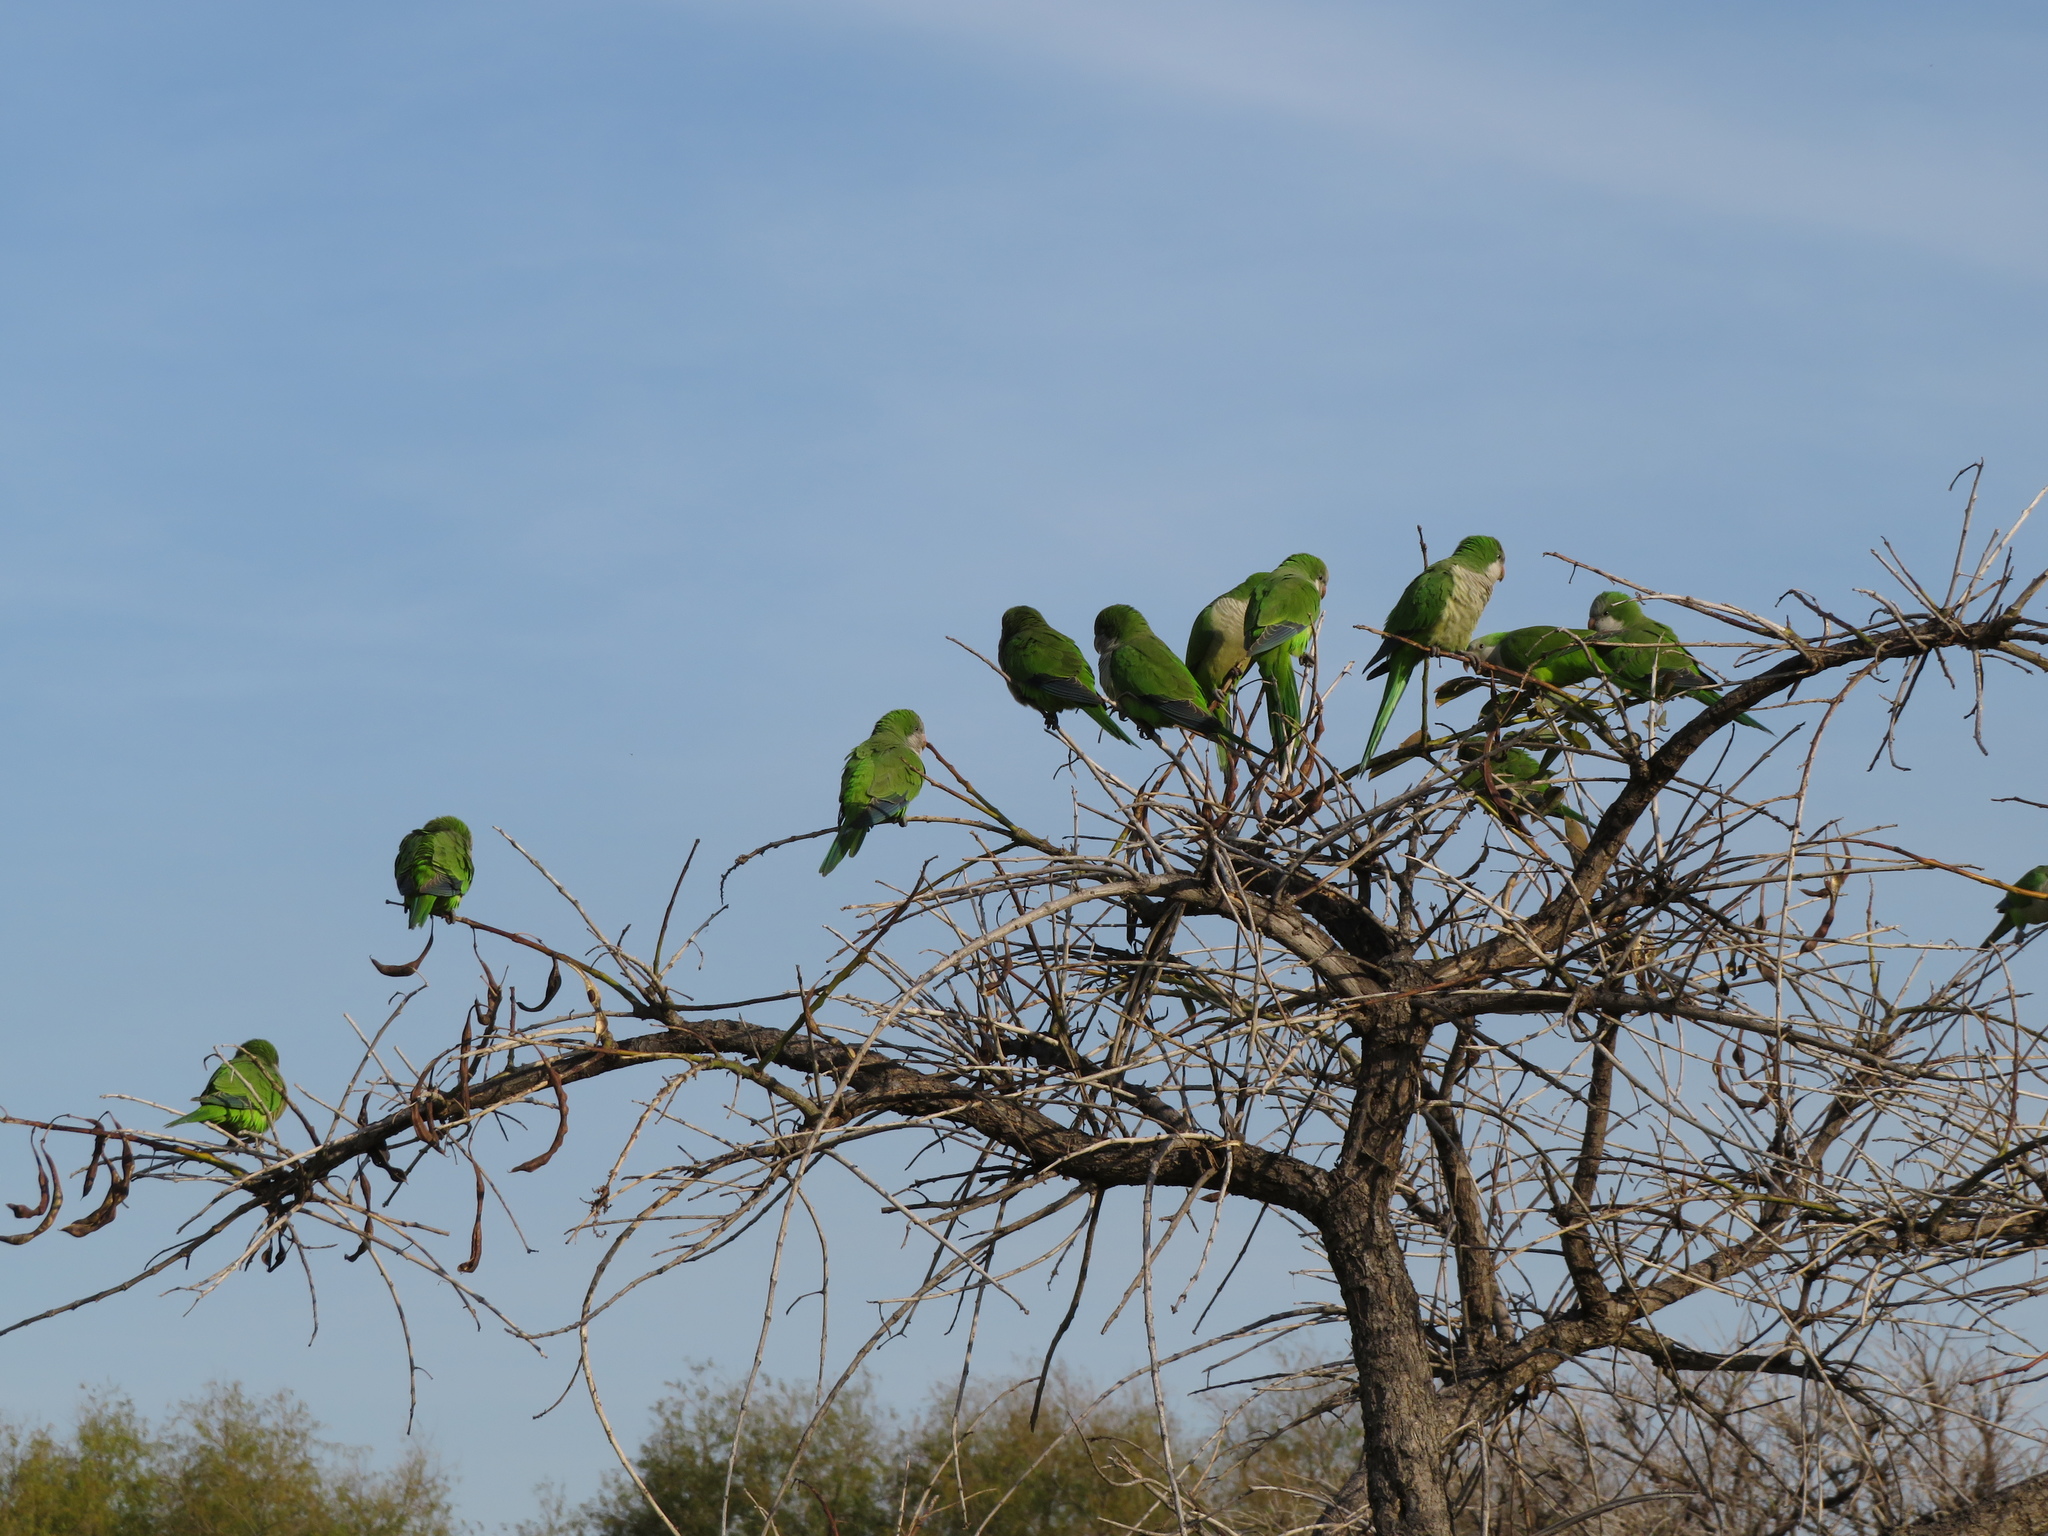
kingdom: Animalia
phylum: Chordata
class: Aves
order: Psittaciformes
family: Psittacidae
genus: Myiopsitta
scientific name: Myiopsitta monachus
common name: Monk parakeet
